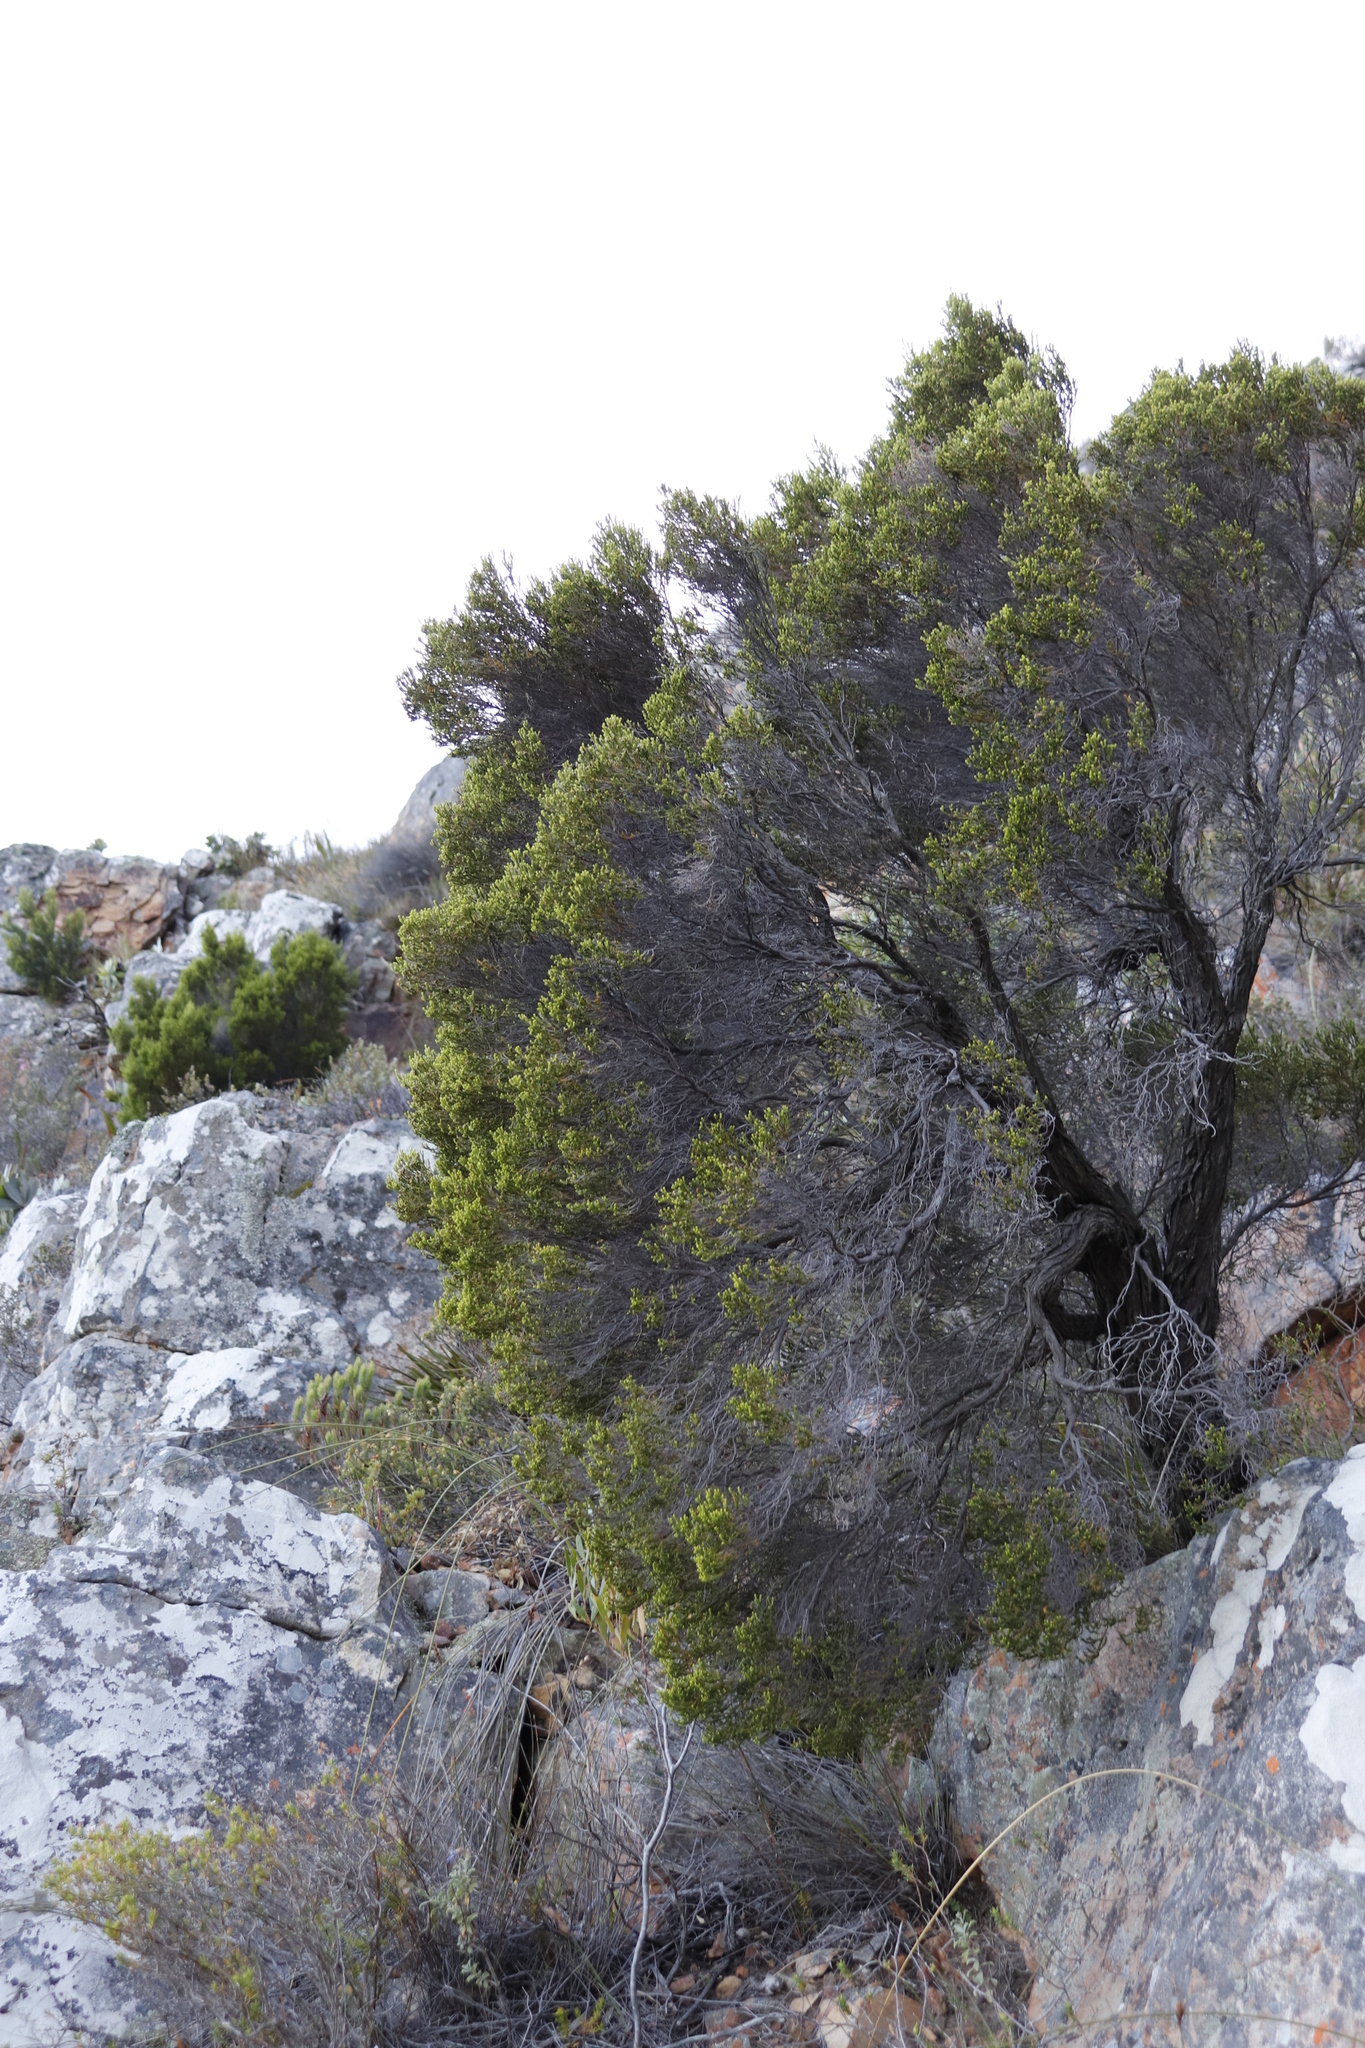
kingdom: Plantae
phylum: Tracheophyta
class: Magnoliopsida
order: Ericales
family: Ericaceae
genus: Erica
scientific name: Erica tristis
